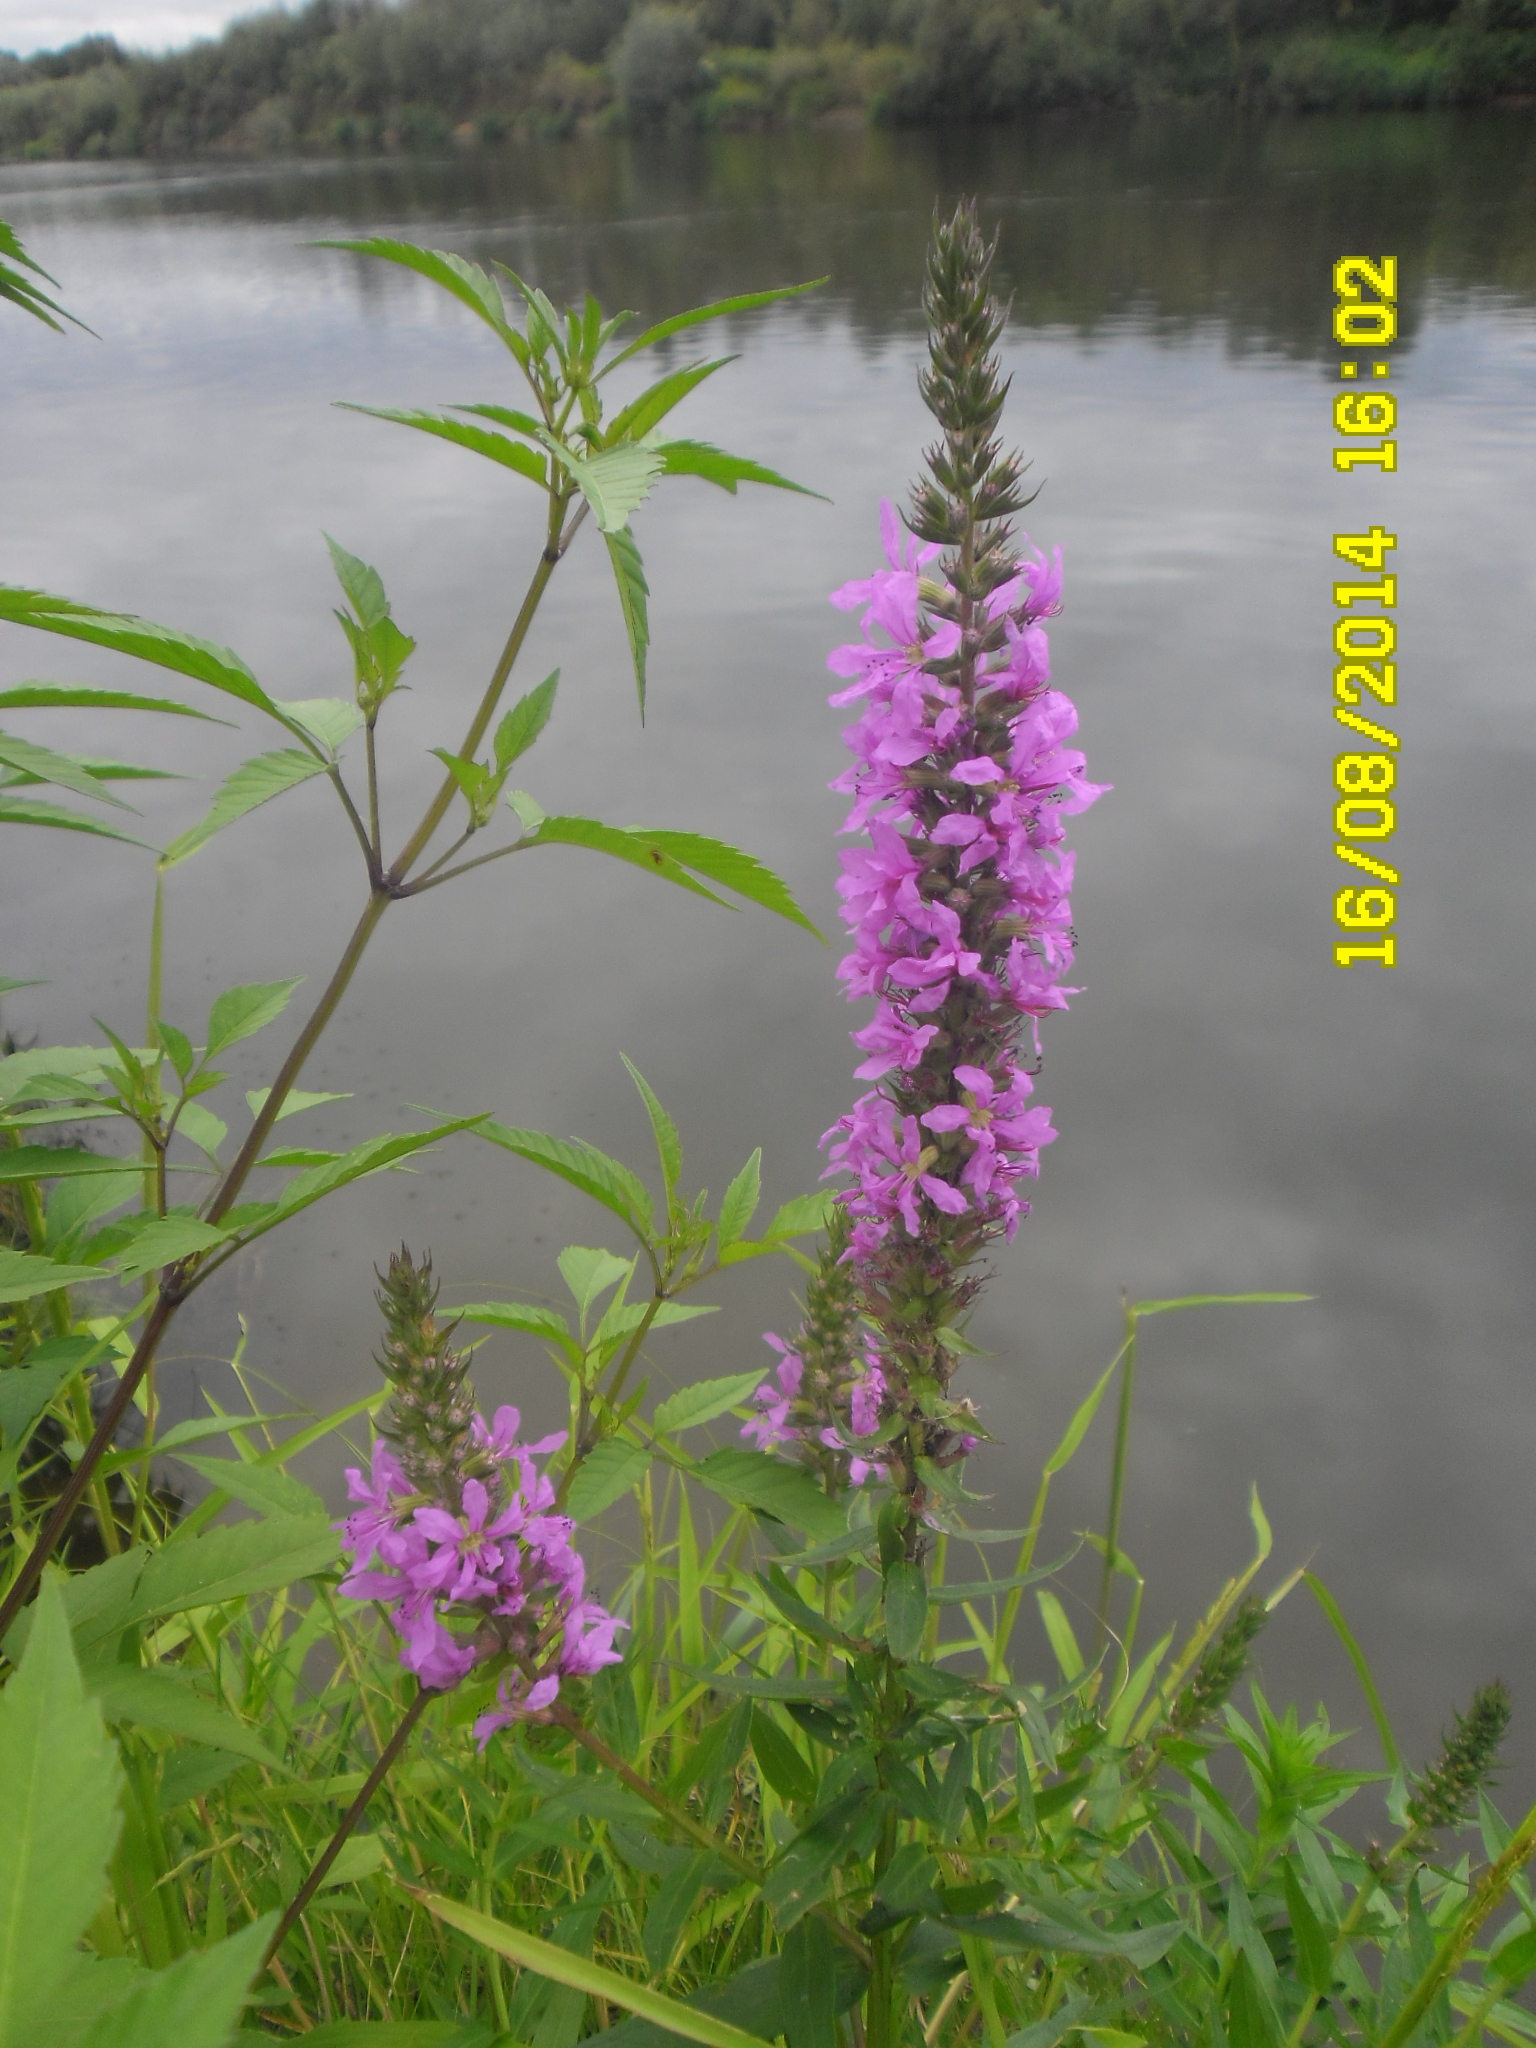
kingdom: Plantae
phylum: Tracheophyta
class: Magnoliopsida
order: Myrtales
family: Lythraceae
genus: Lythrum
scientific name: Lythrum salicaria
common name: Purple loosestrife
